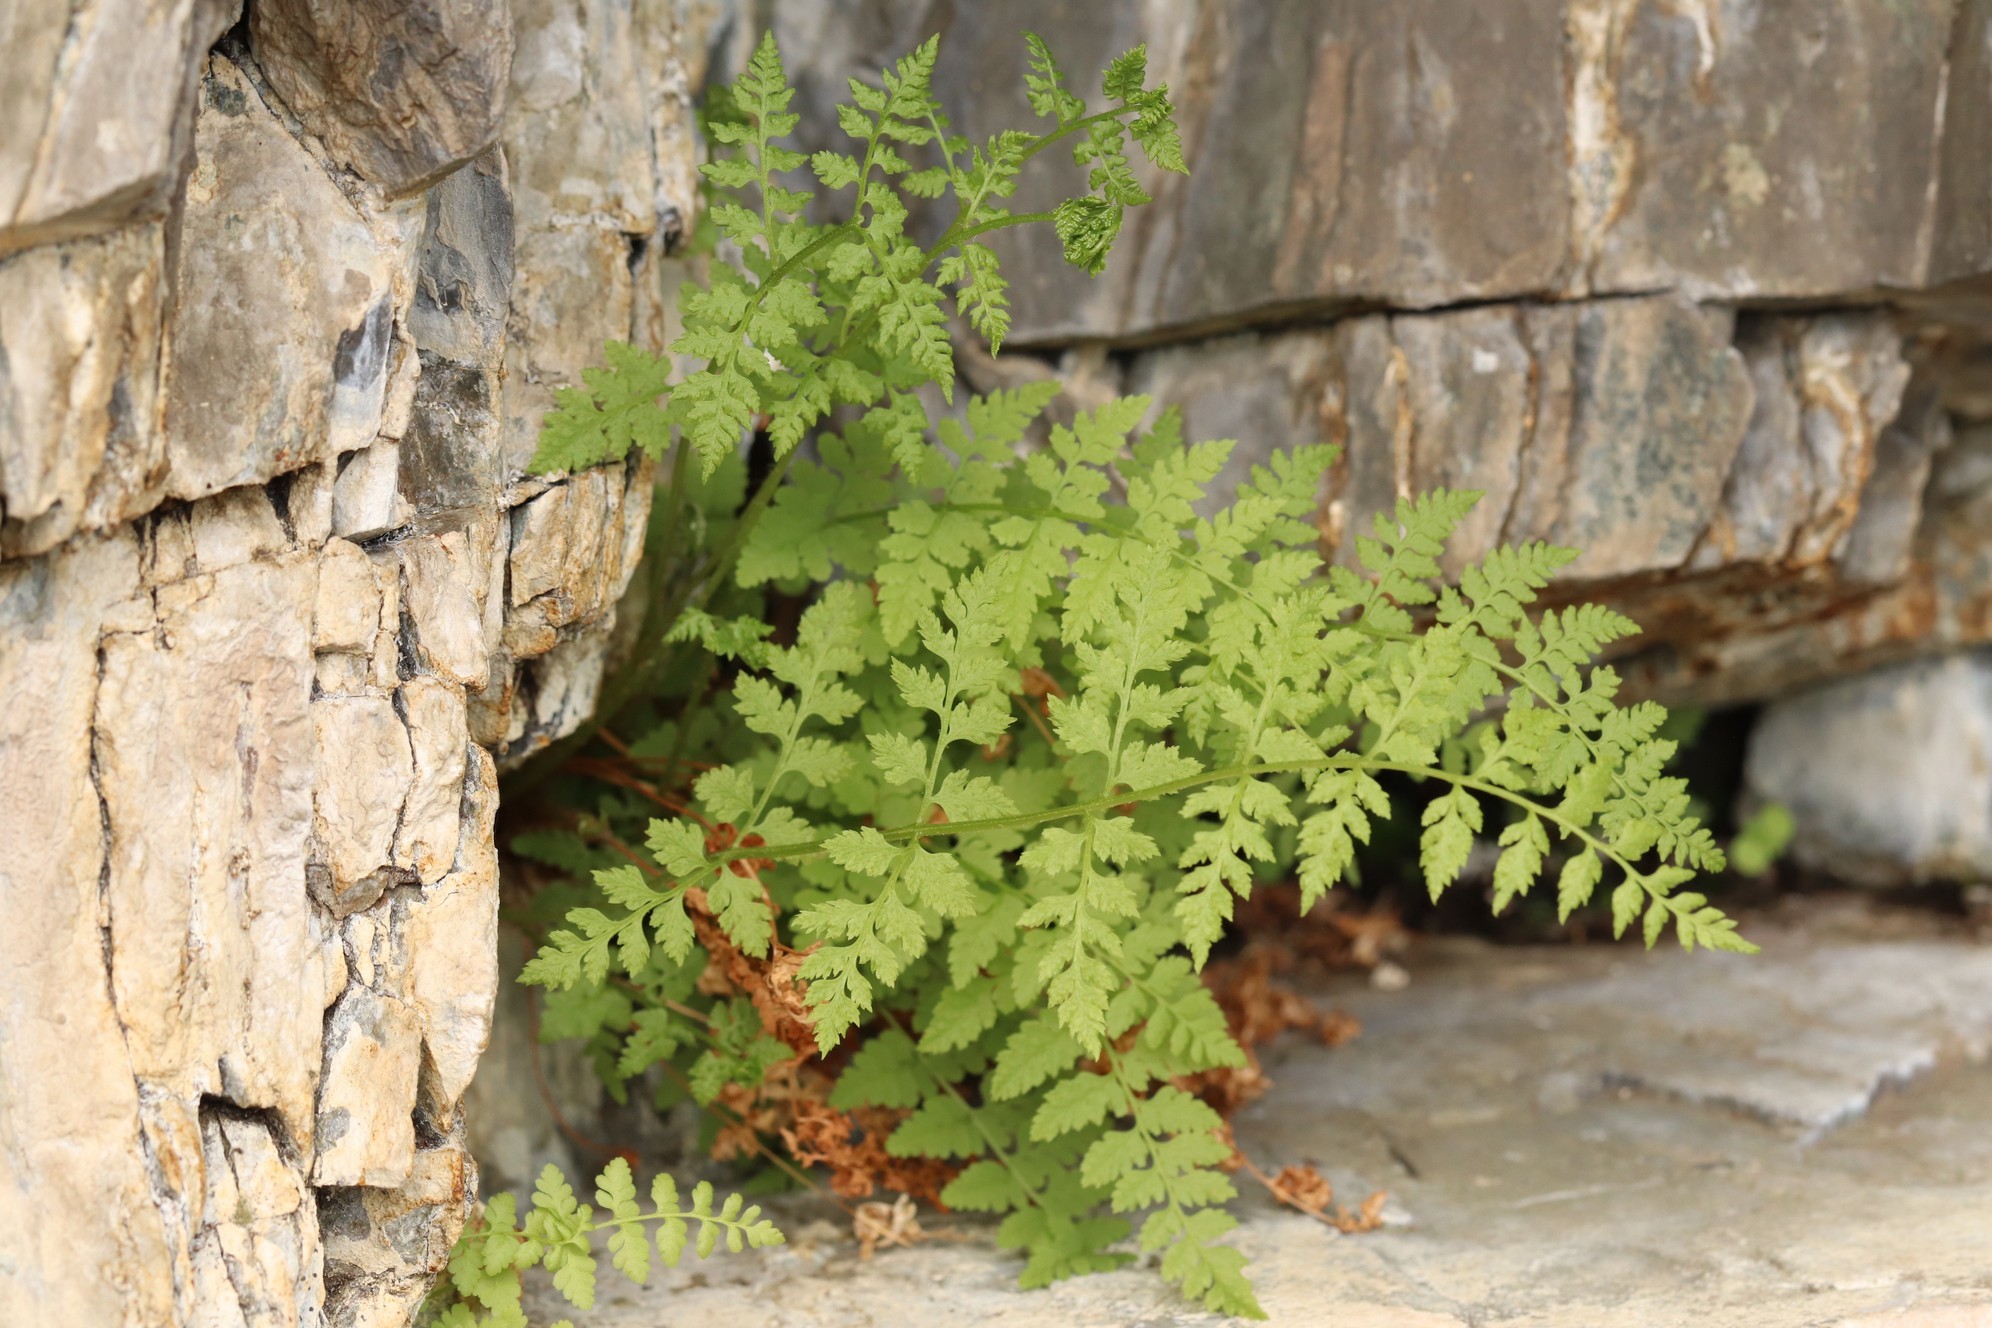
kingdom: Plantae
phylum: Tracheophyta
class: Polypodiopsida
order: Polypodiales
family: Cystopteridaceae
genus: Cystopteris
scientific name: Cystopteris fragilis
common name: Brittle bladder fern
